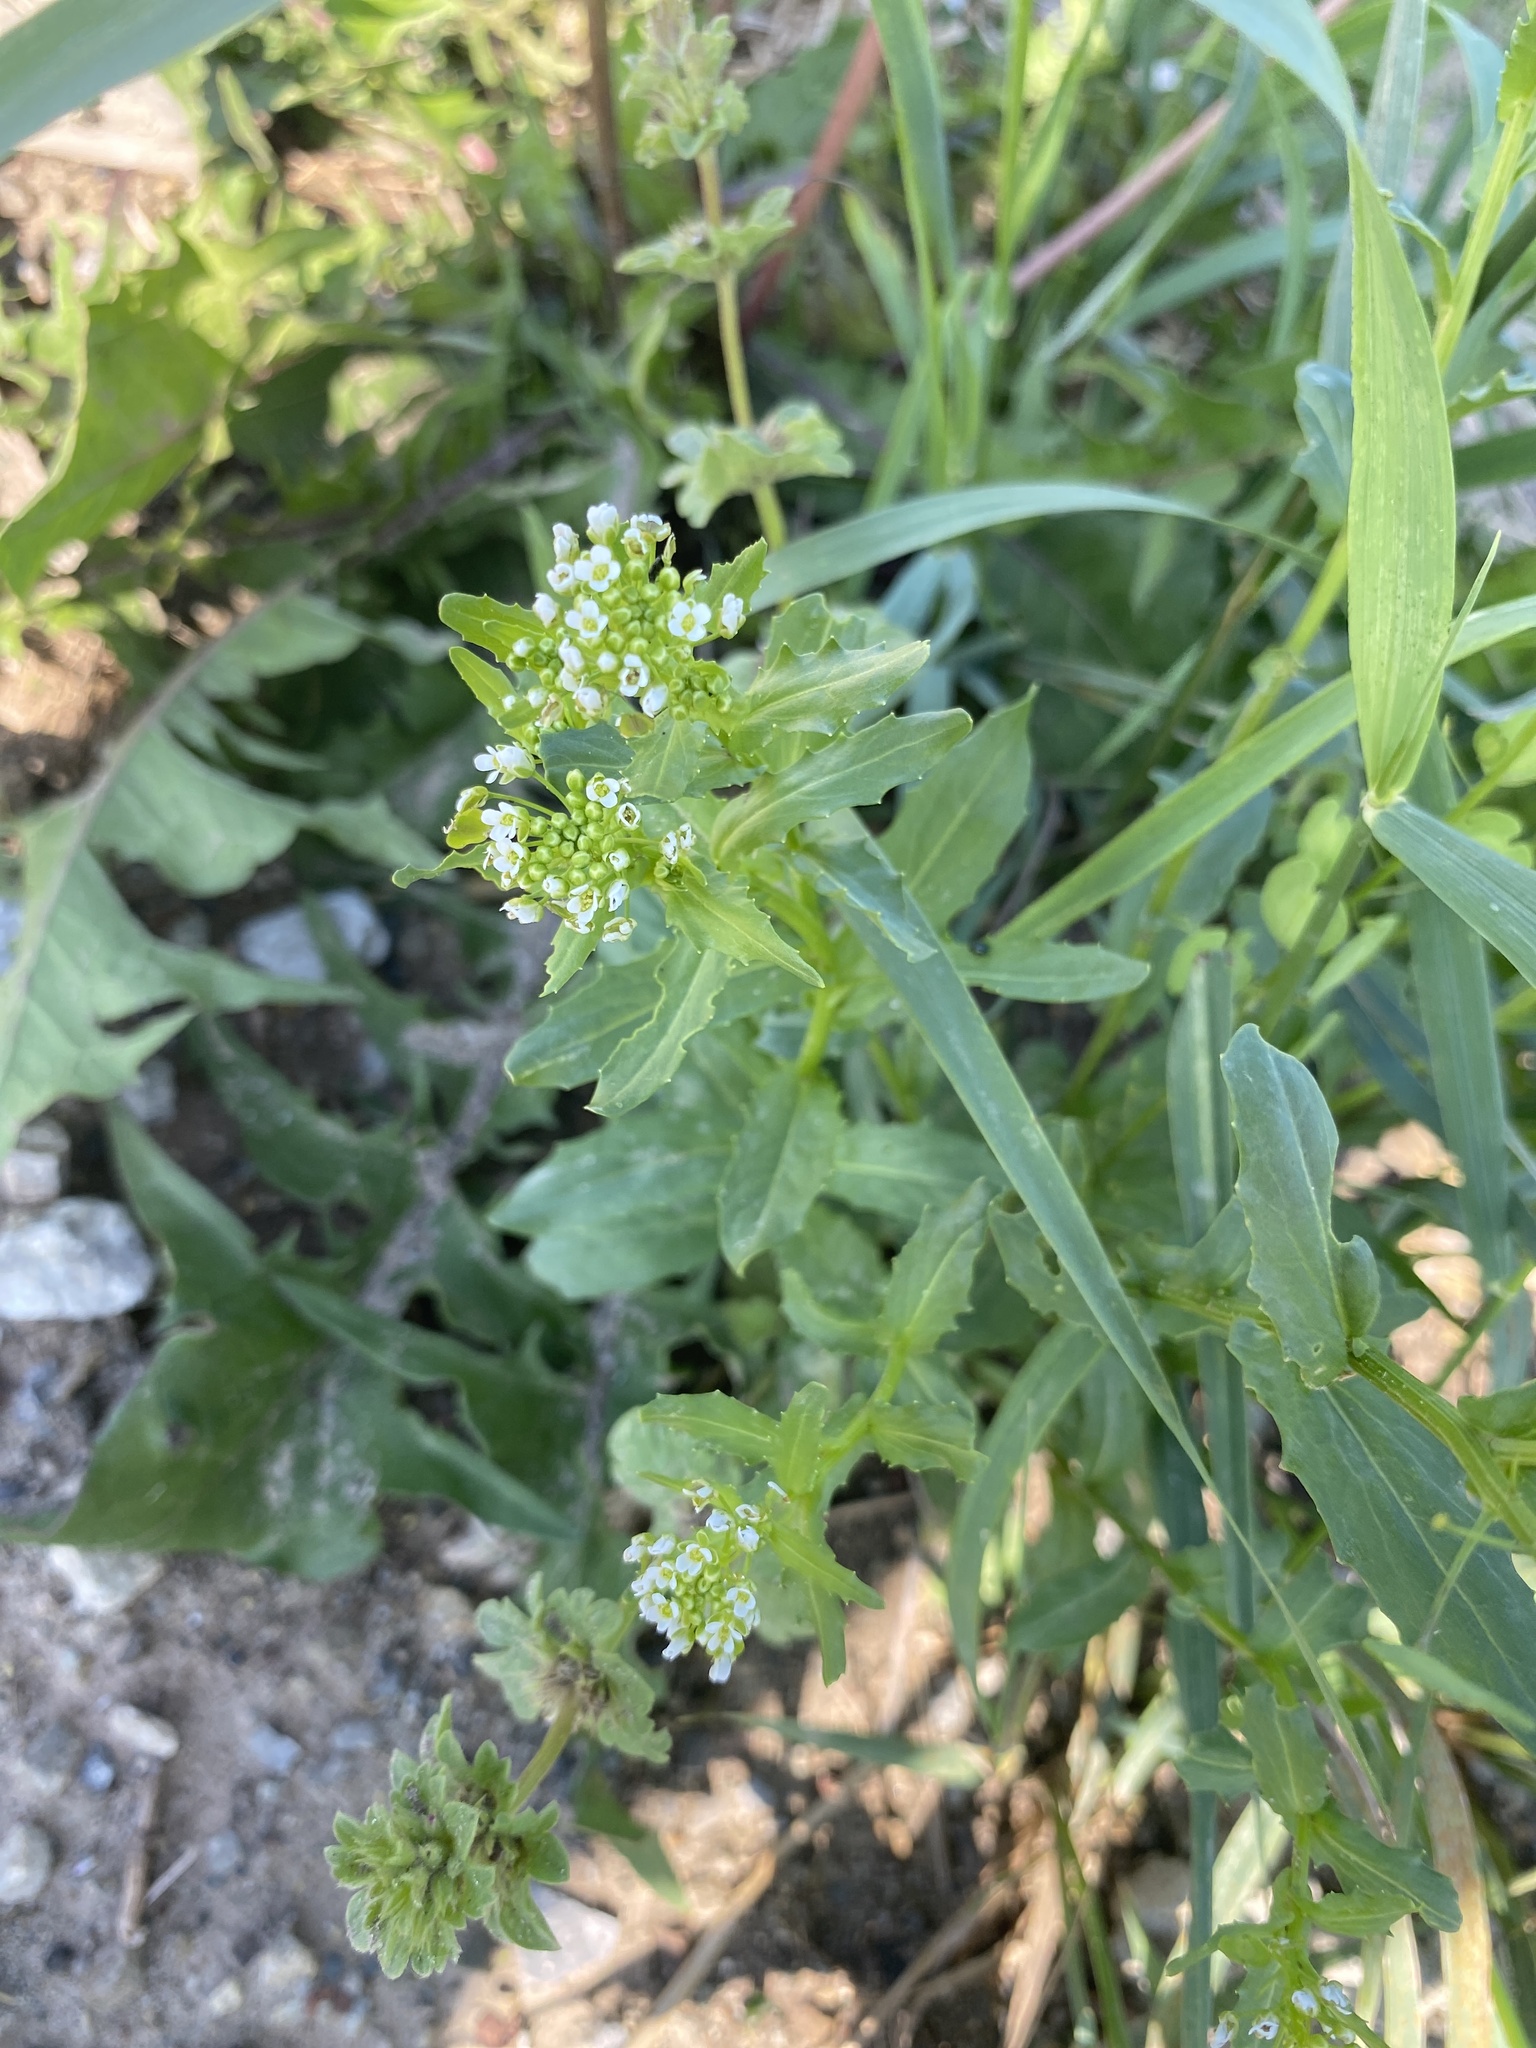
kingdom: Plantae
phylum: Tracheophyta
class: Magnoliopsida
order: Brassicales
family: Brassicaceae
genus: Thlaspi
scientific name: Thlaspi arvense
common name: Field pennycress
